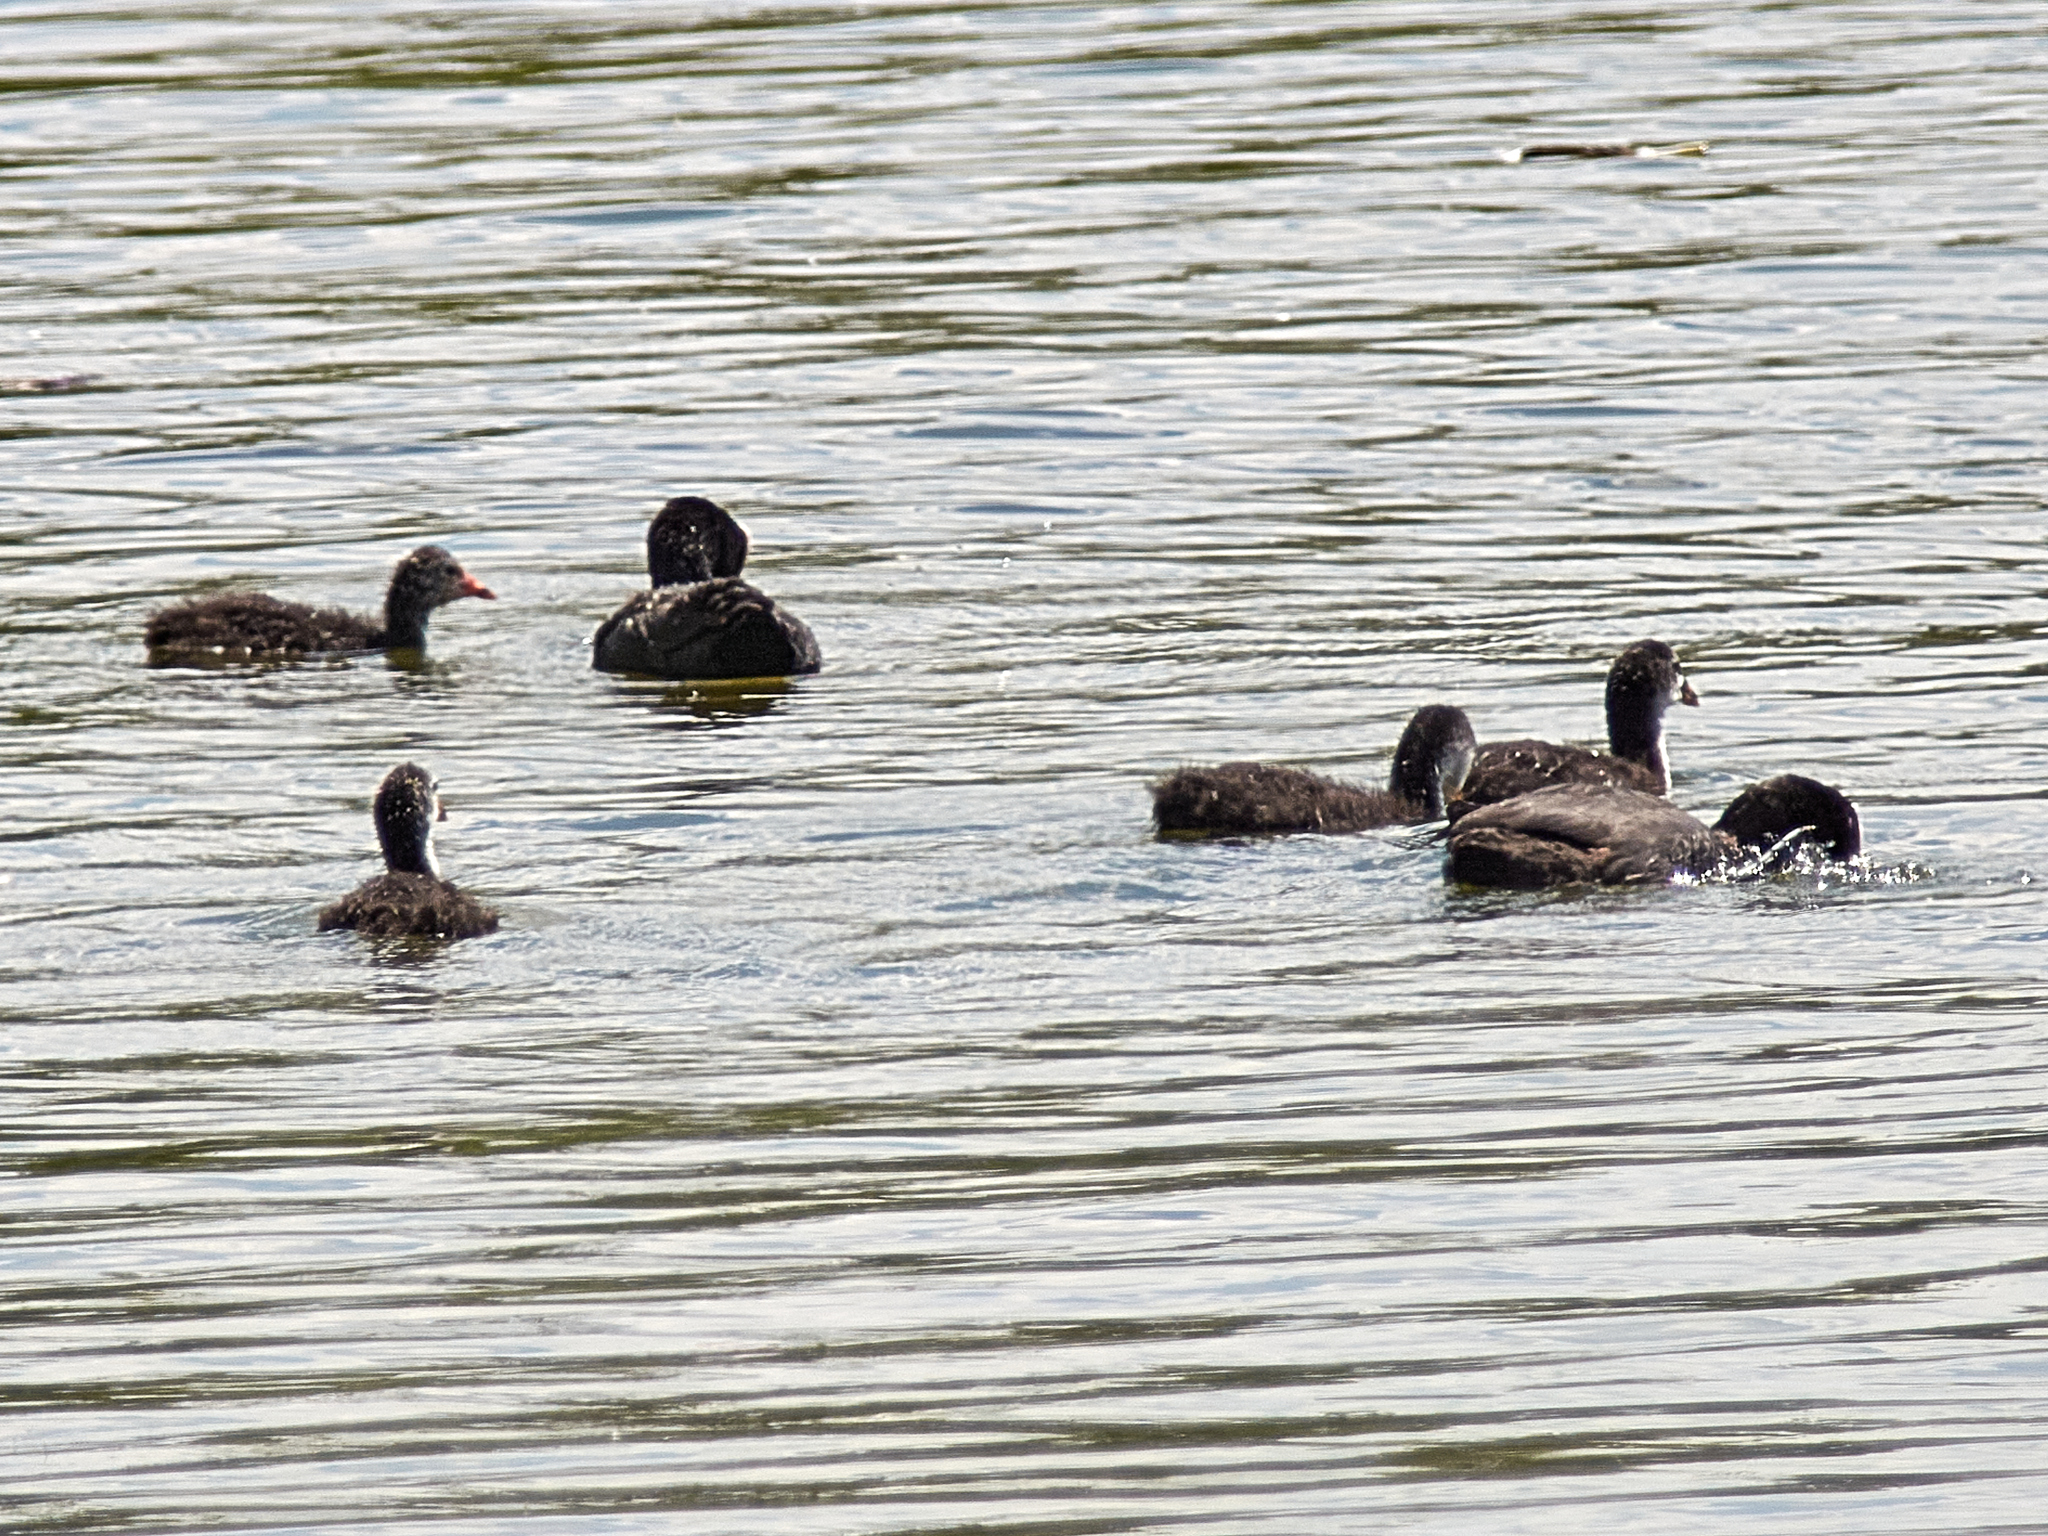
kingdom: Animalia
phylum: Chordata
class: Aves
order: Gruiformes
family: Rallidae
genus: Fulica
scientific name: Fulica atra
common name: Eurasian coot
